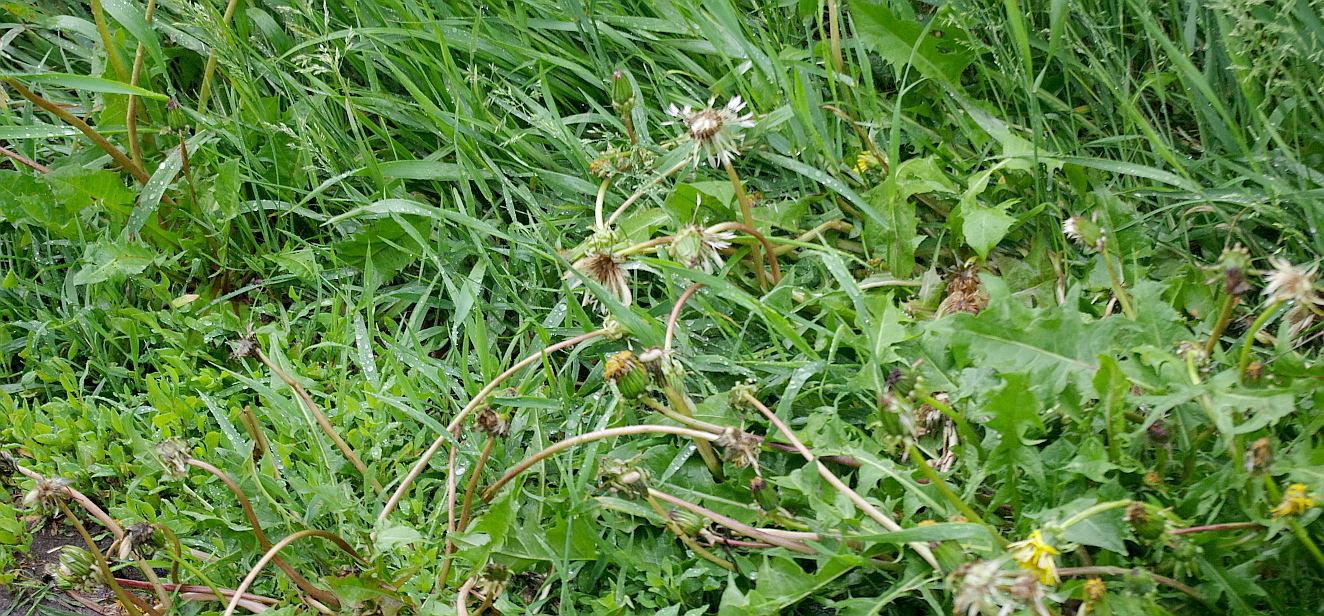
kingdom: Plantae
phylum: Tracheophyta
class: Magnoliopsida
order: Asterales
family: Asteraceae
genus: Taraxacum
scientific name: Taraxacum officinale
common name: Common dandelion
